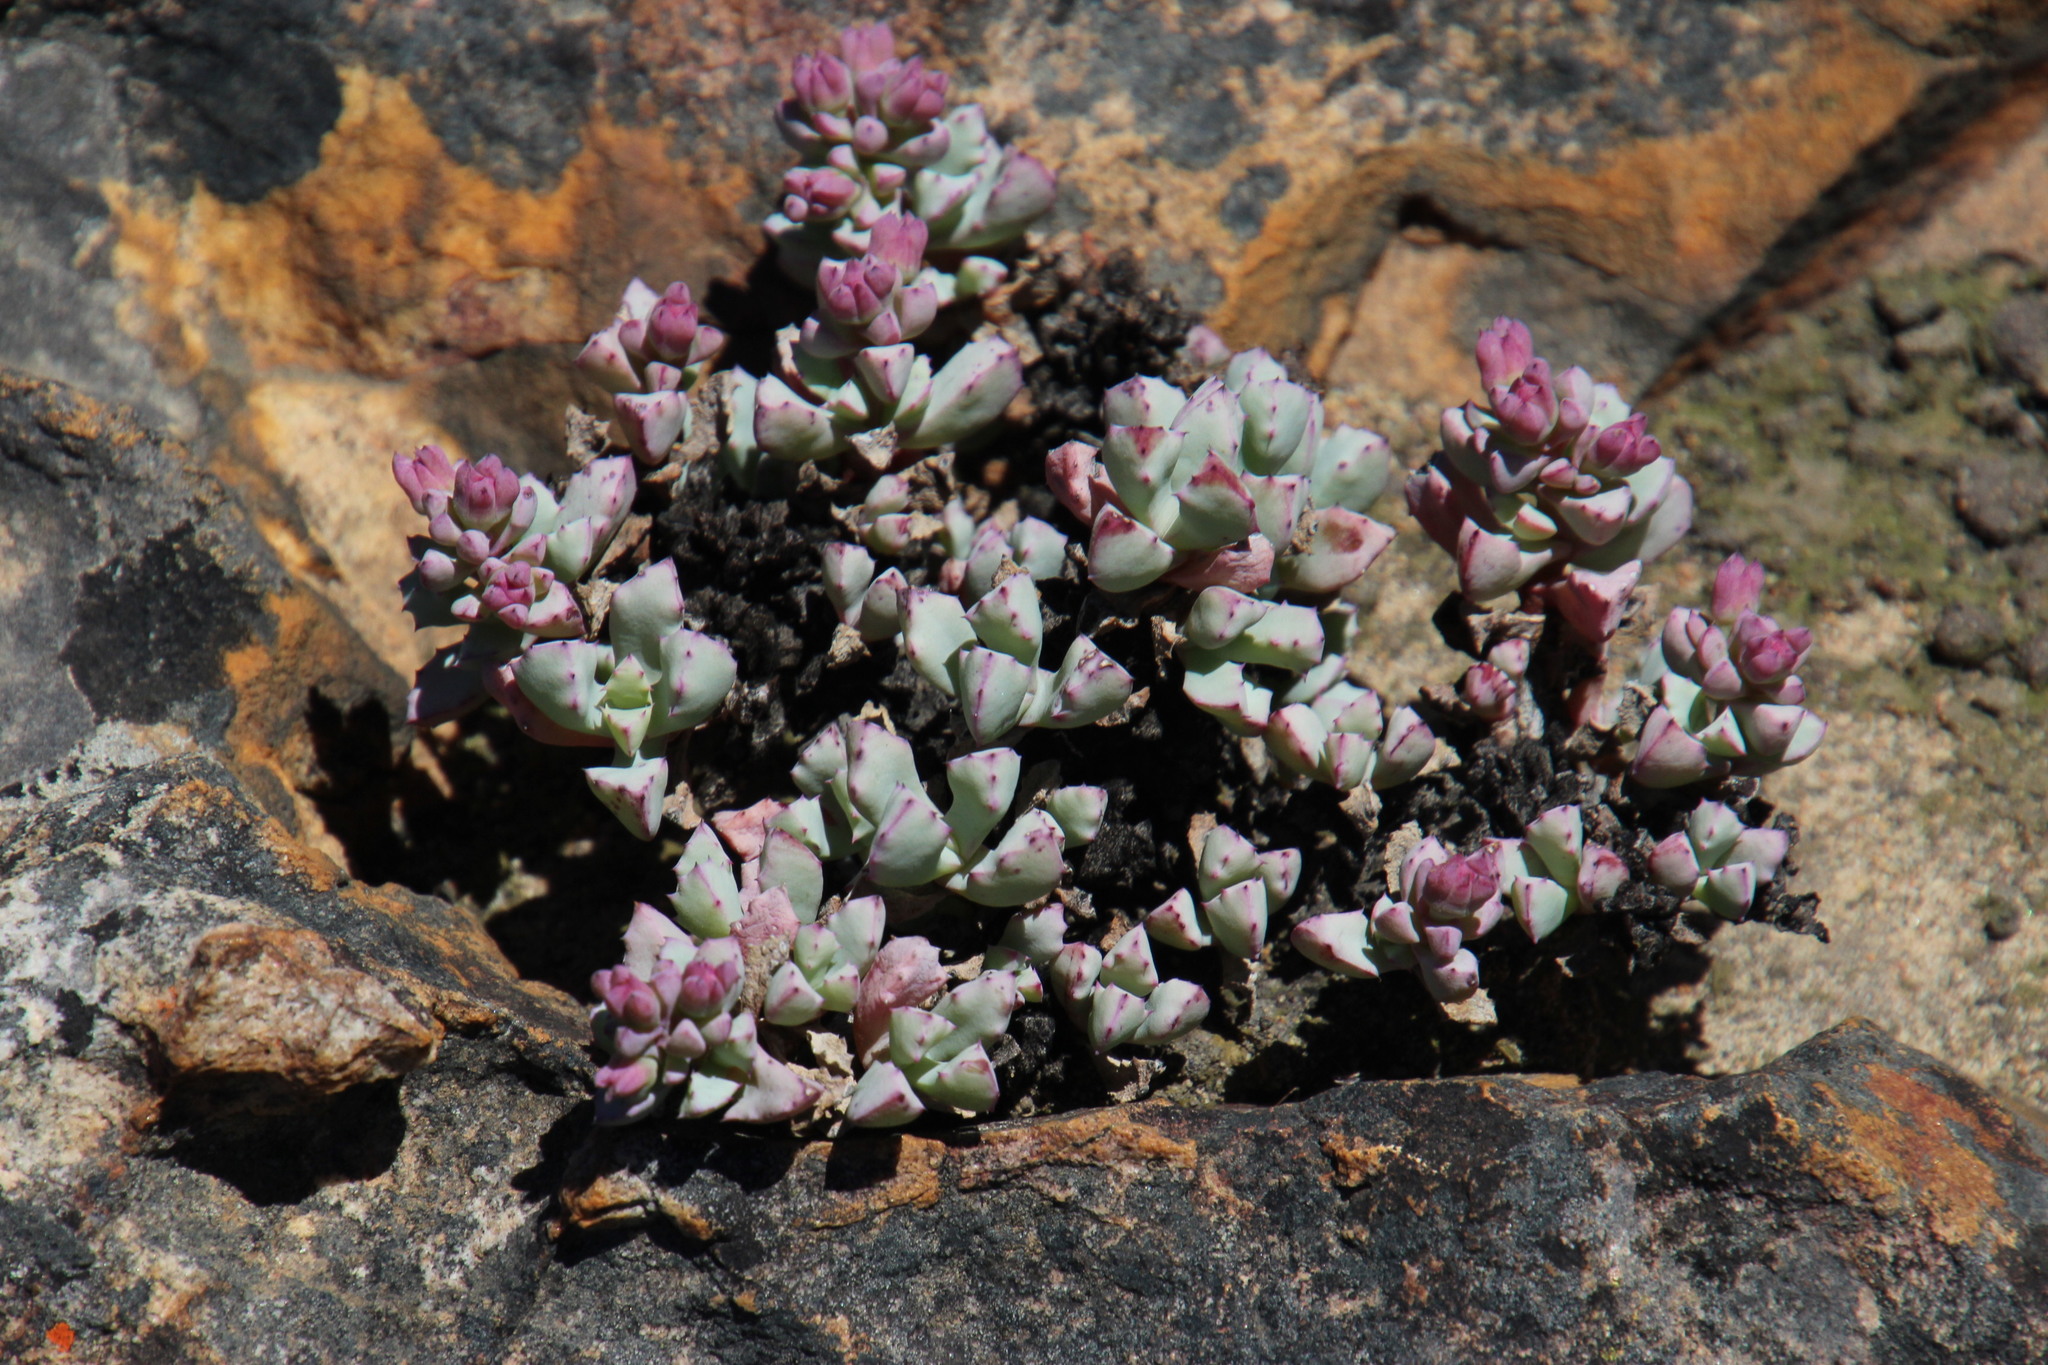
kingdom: Plantae
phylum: Tracheophyta
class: Magnoliopsida
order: Caryophyllales
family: Aizoaceae
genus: Oscularia
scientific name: Oscularia deltoides
